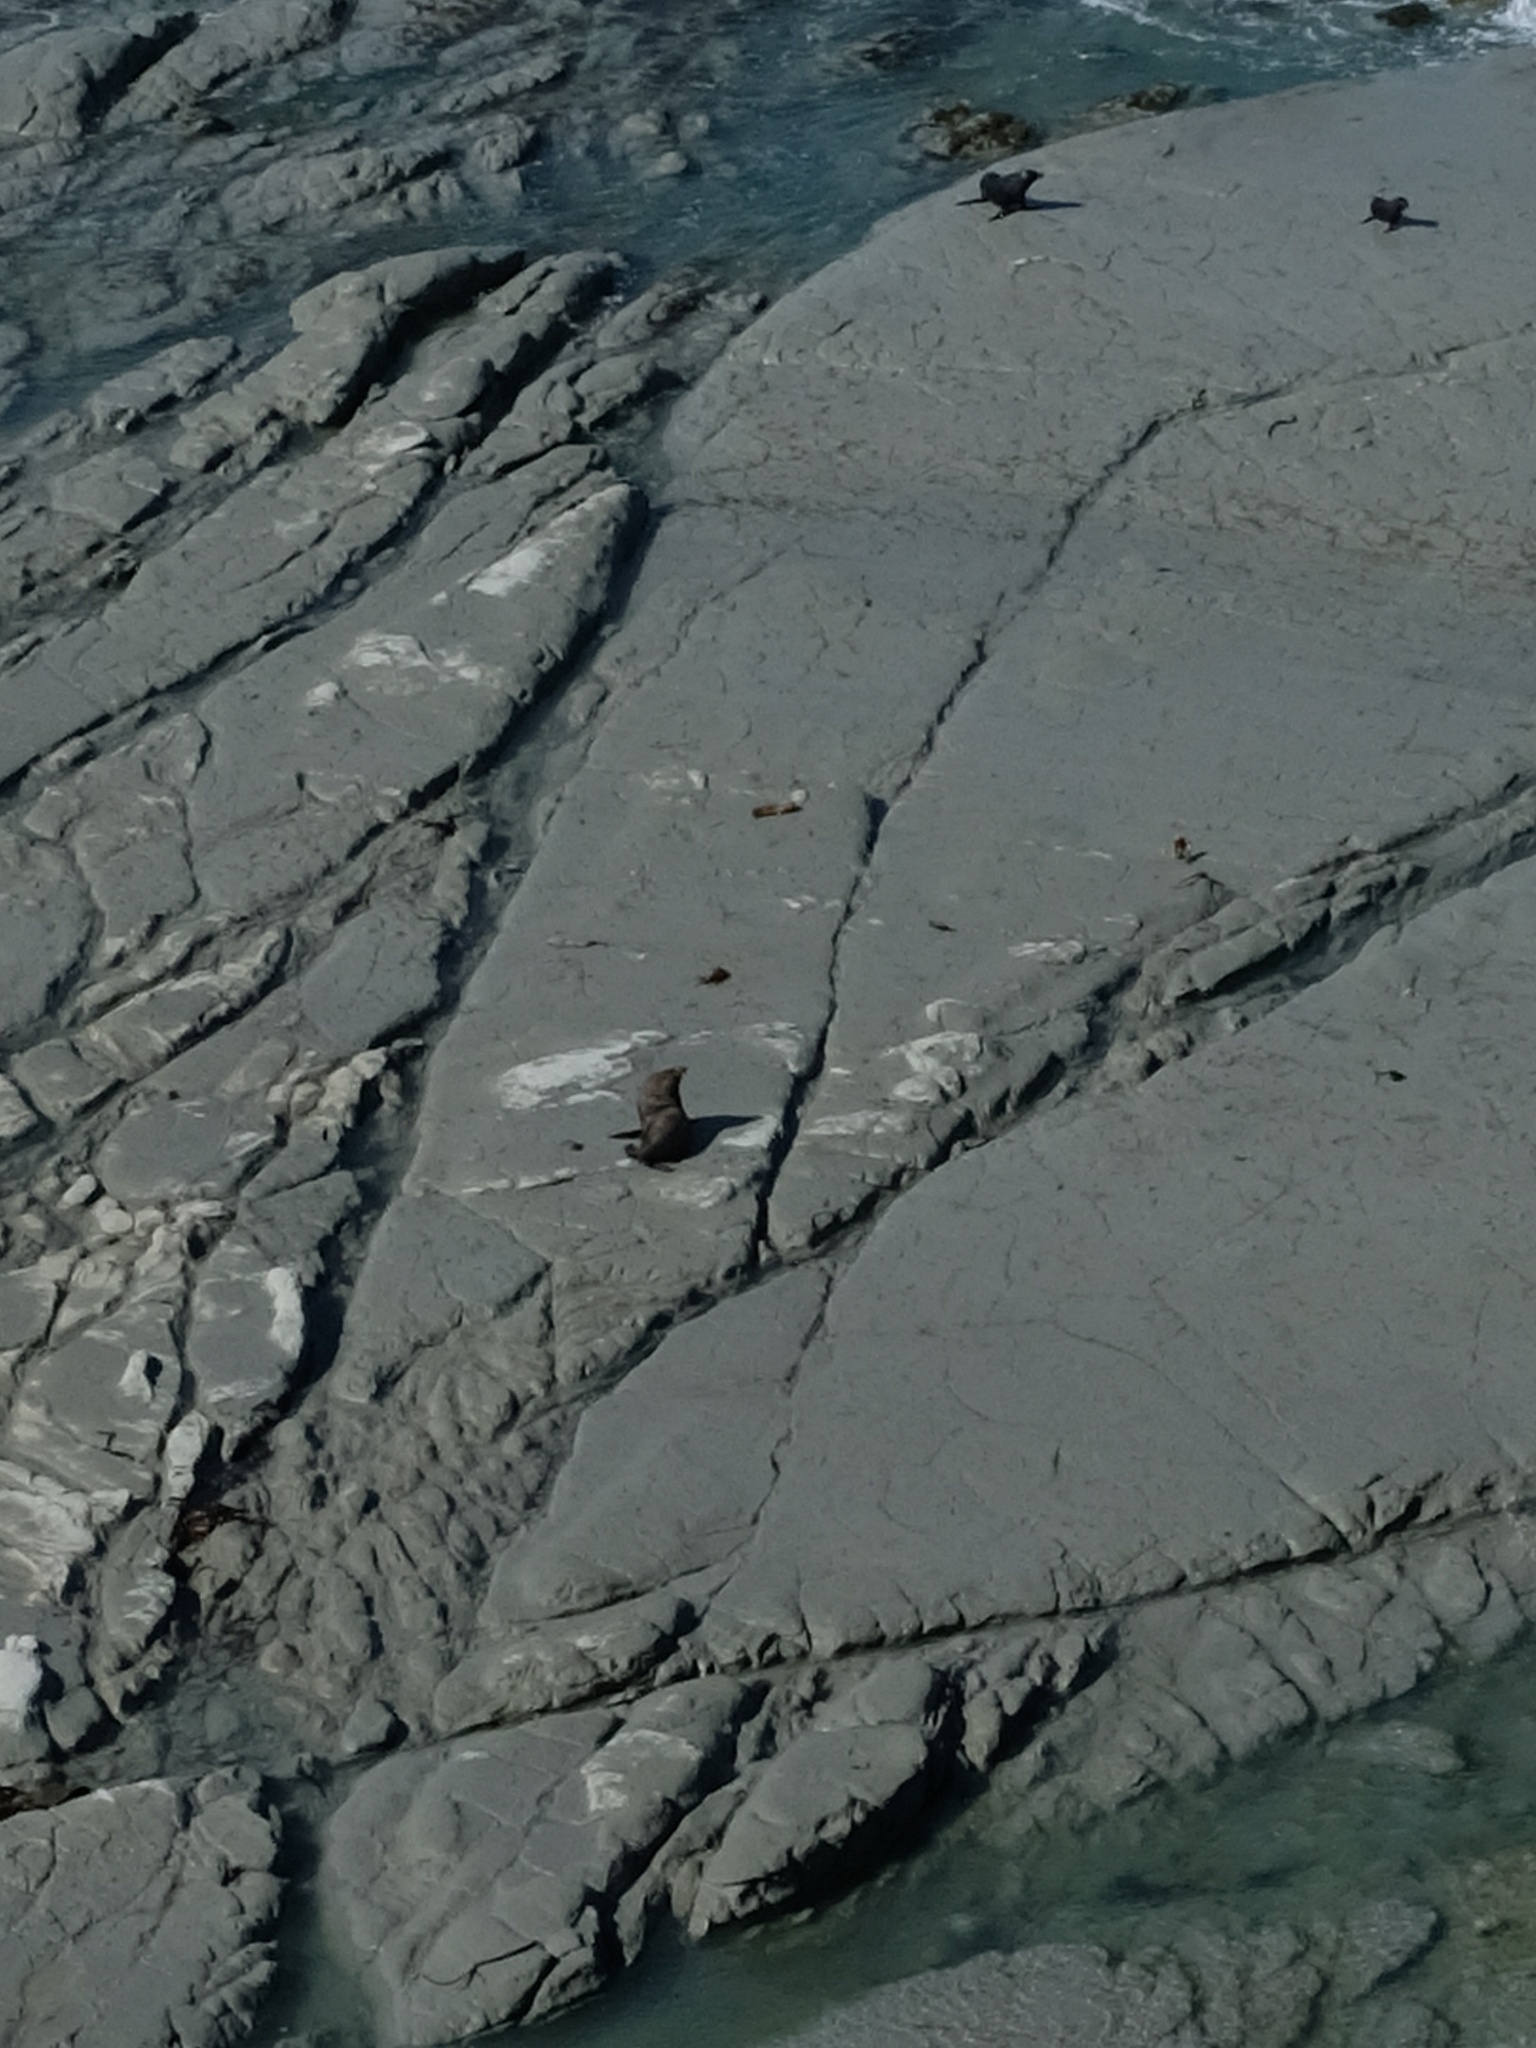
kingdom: Animalia
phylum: Chordata
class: Mammalia
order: Carnivora
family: Otariidae
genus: Arctocephalus
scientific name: Arctocephalus forsteri
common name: New zealand fur seal
